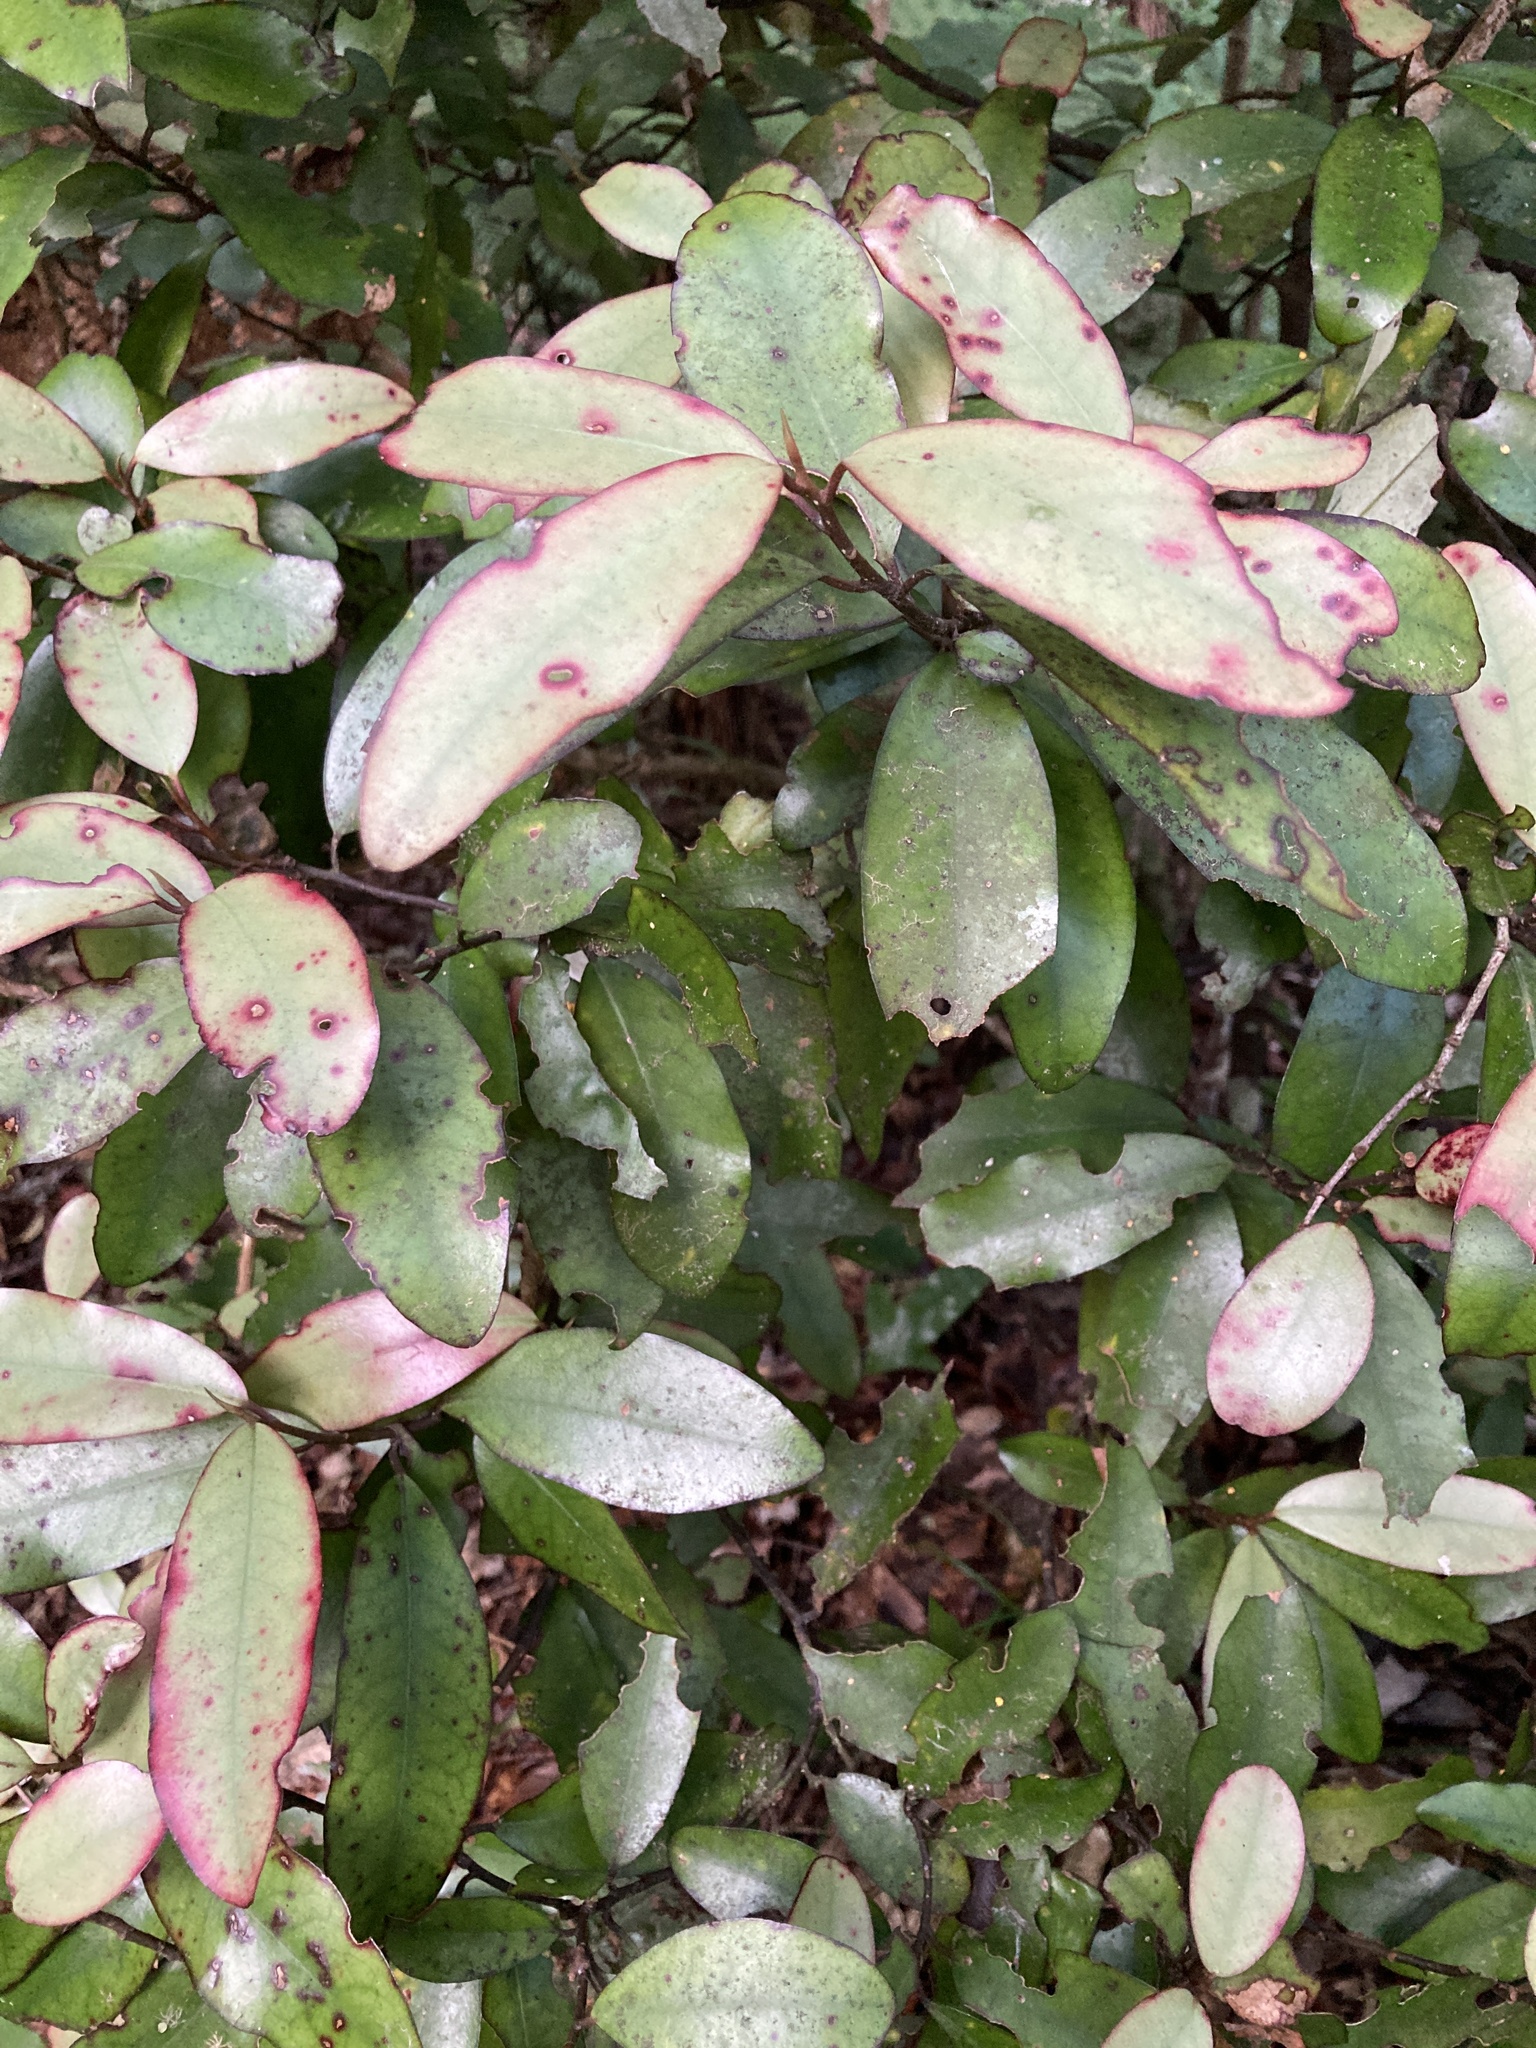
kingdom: Plantae
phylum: Tracheophyta
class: Magnoliopsida
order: Canellales
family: Winteraceae
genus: Pseudowintera
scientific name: Pseudowintera colorata
